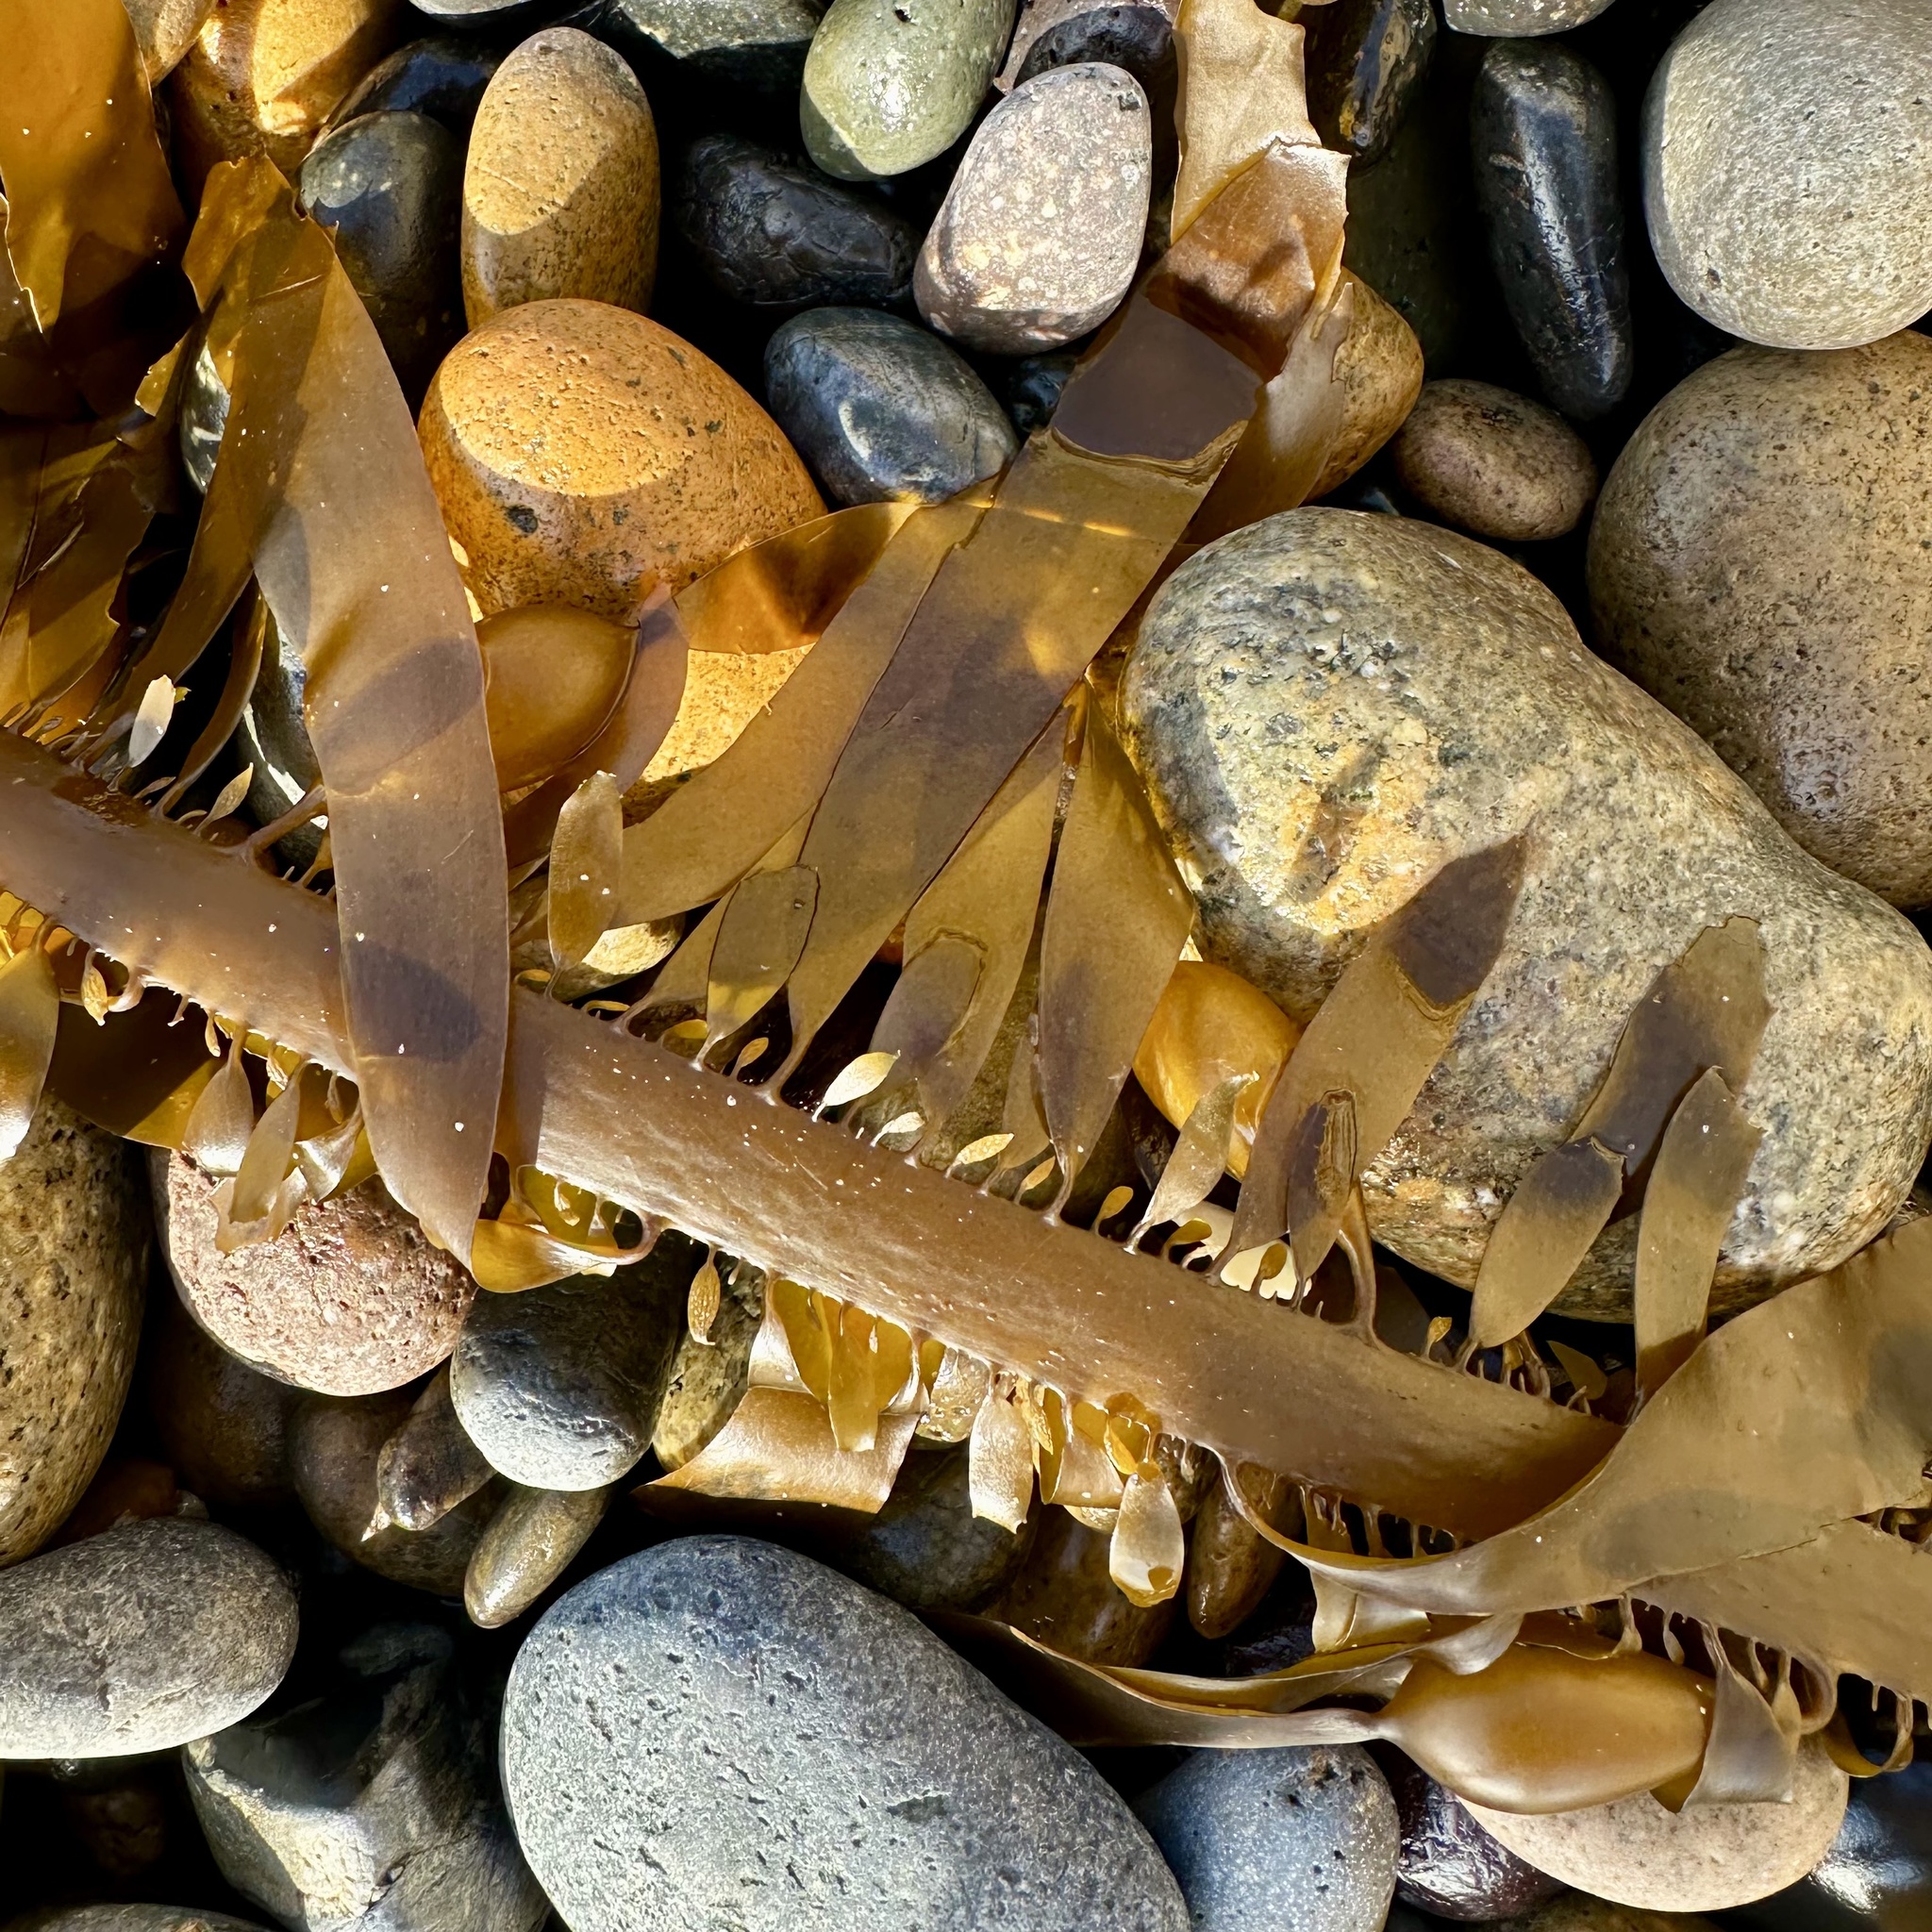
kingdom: Chromista
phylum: Ochrophyta
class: Phaeophyceae
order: Laminariales
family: Lessoniaceae
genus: Egregia
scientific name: Egregia menziesii
